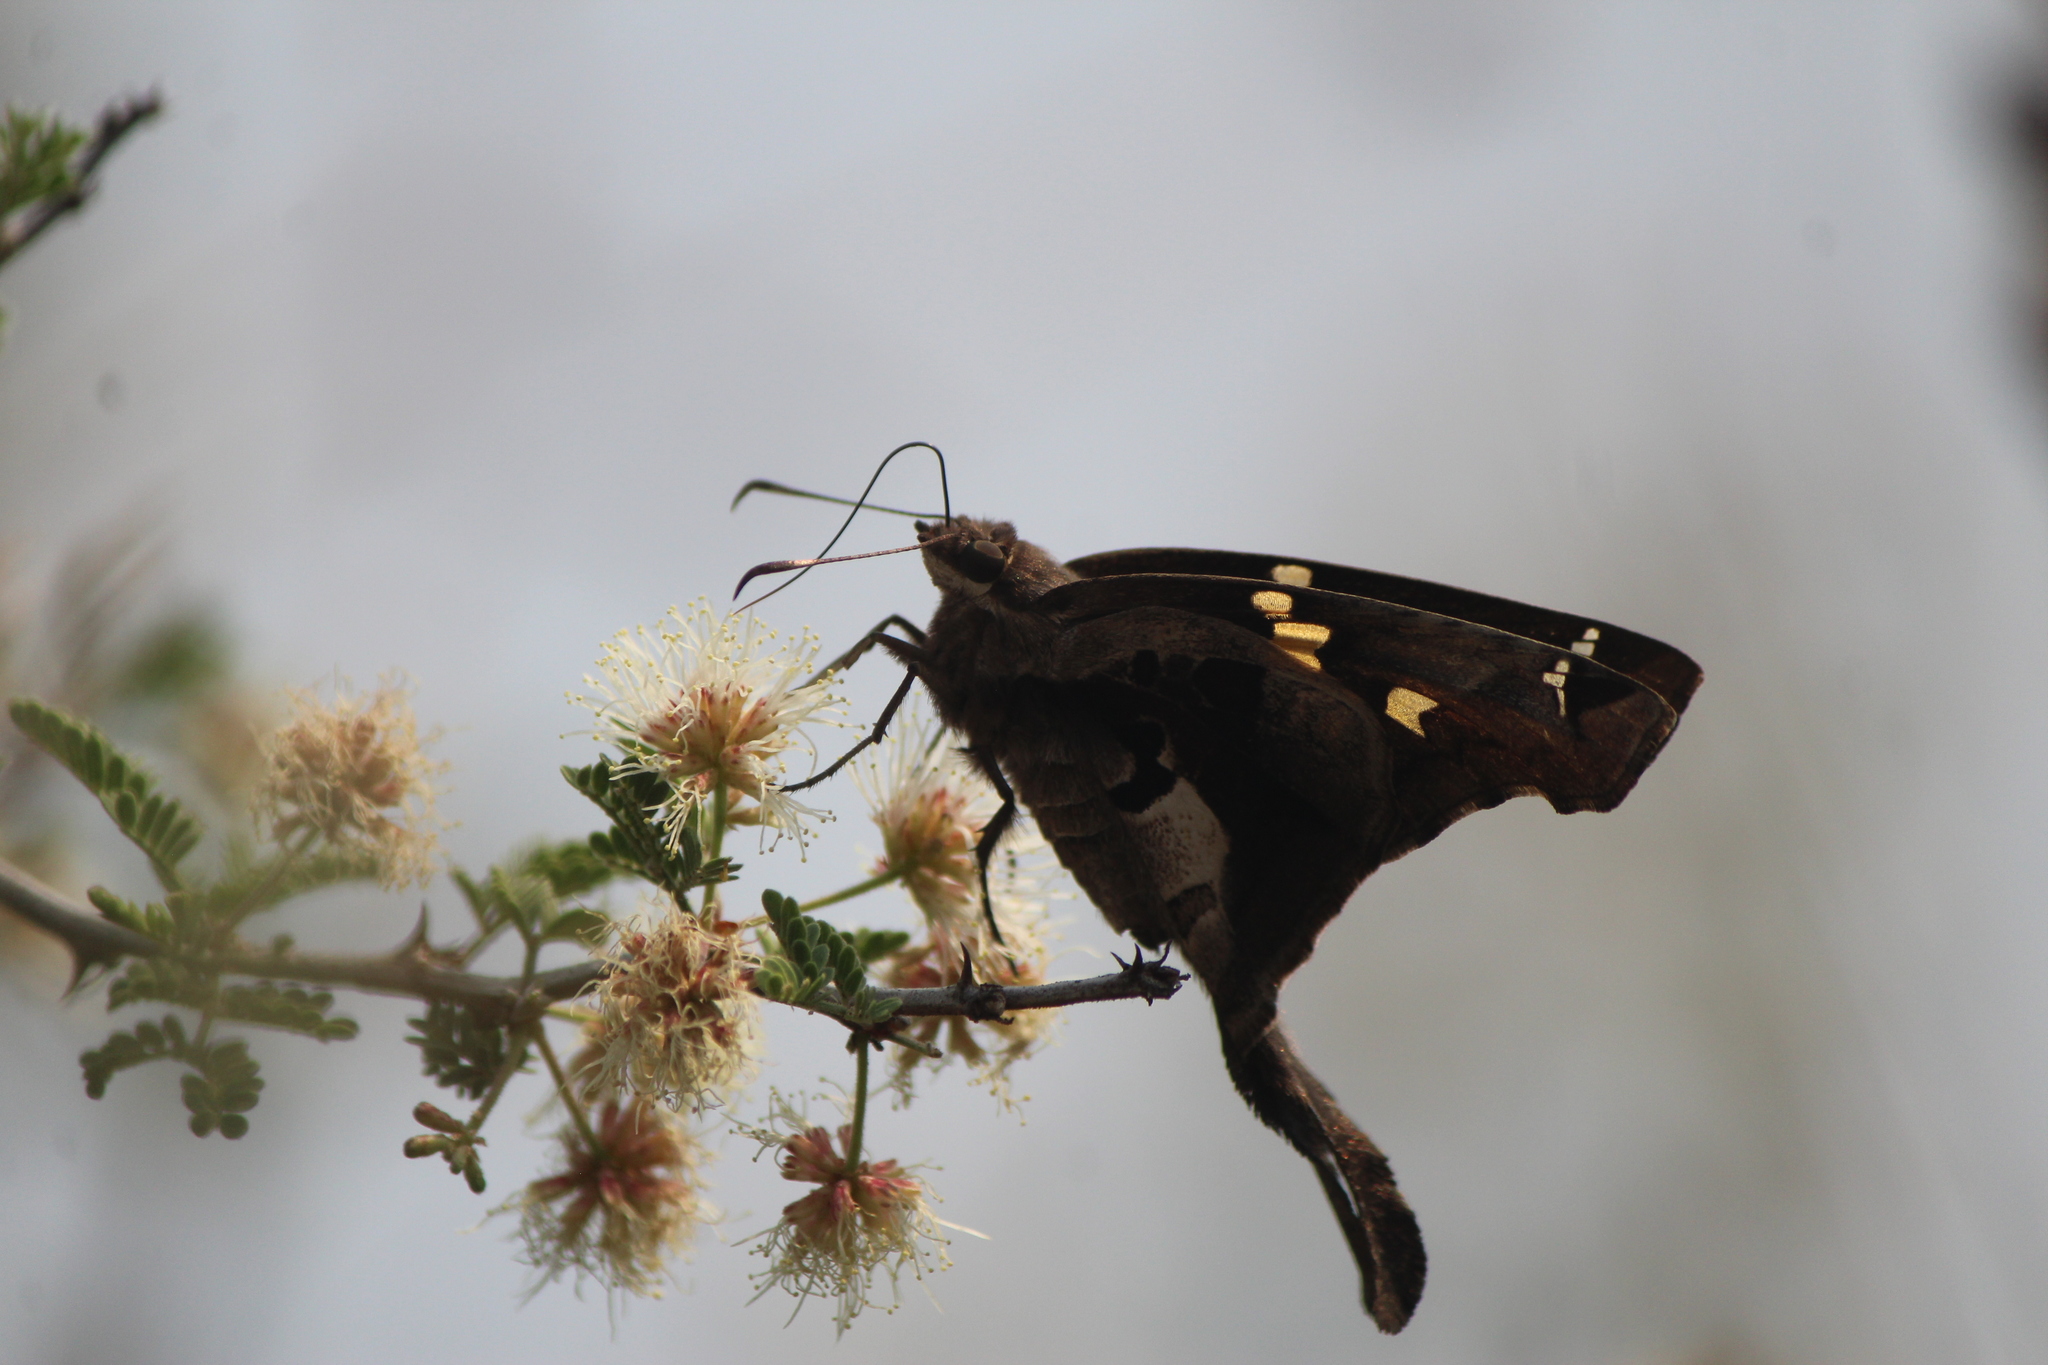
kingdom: Animalia
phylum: Arthropoda
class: Insecta
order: Lepidoptera
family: Hesperiidae
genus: Chioides
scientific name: Chioides zilpa
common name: Zilpa longtail
